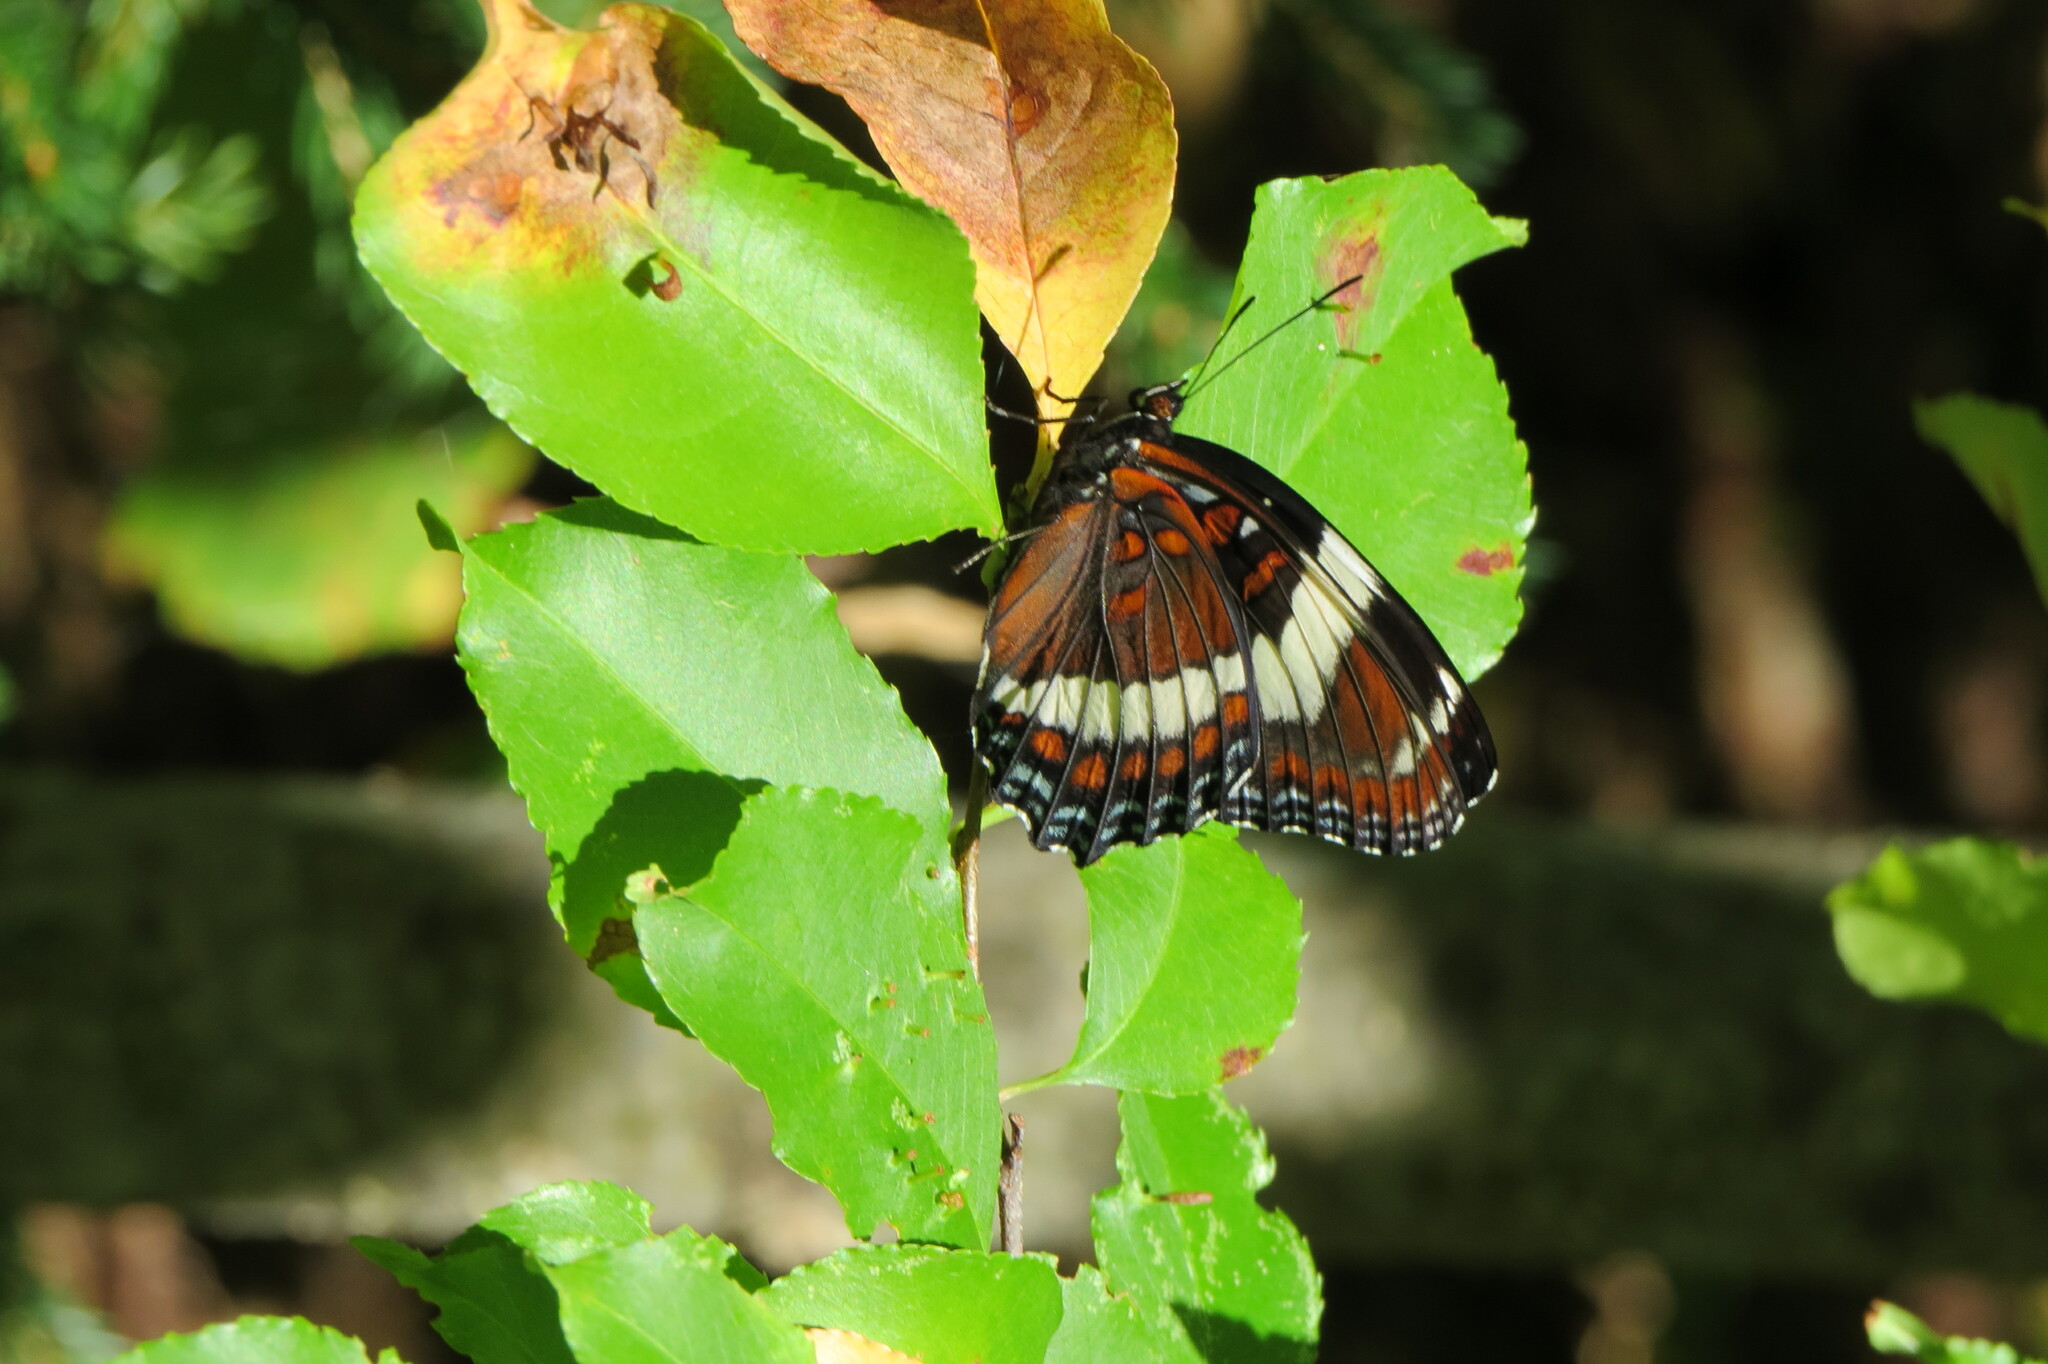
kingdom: Animalia
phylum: Arthropoda
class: Insecta
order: Lepidoptera
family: Nymphalidae
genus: Limenitis
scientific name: Limenitis arthemis
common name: Red-spotted admiral
